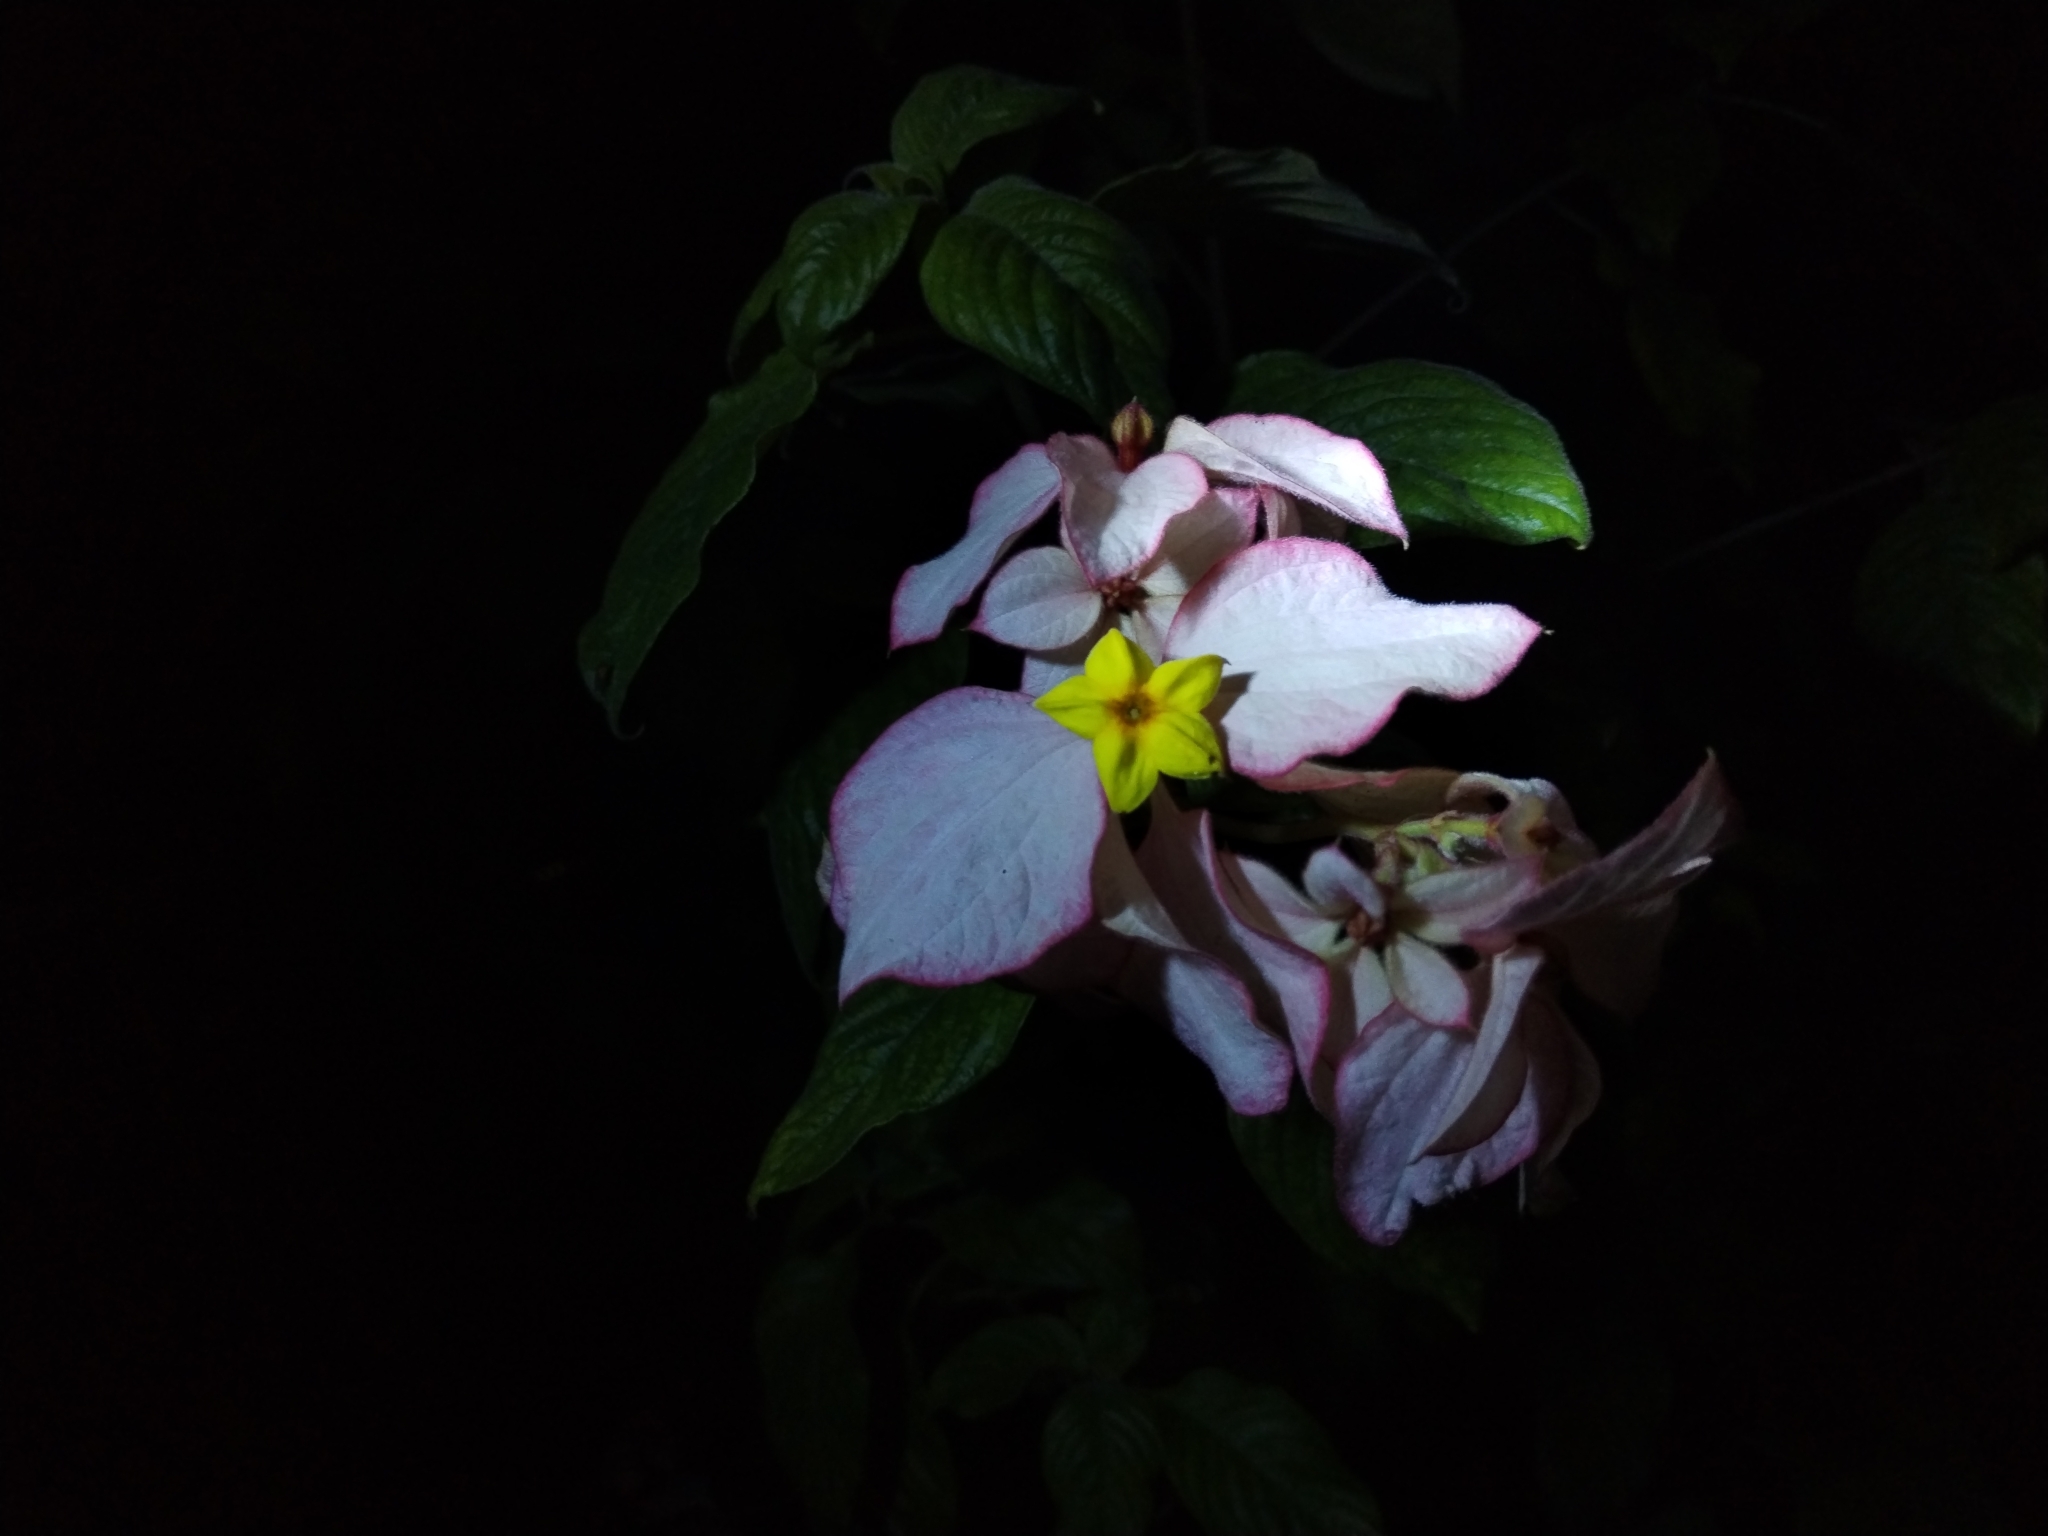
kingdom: Plantae
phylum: Tracheophyta
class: Magnoliopsida
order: Gentianales
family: Rubiaceae
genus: Mussaenda
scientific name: Mussaenda philippica
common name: Philippine mussaenda
